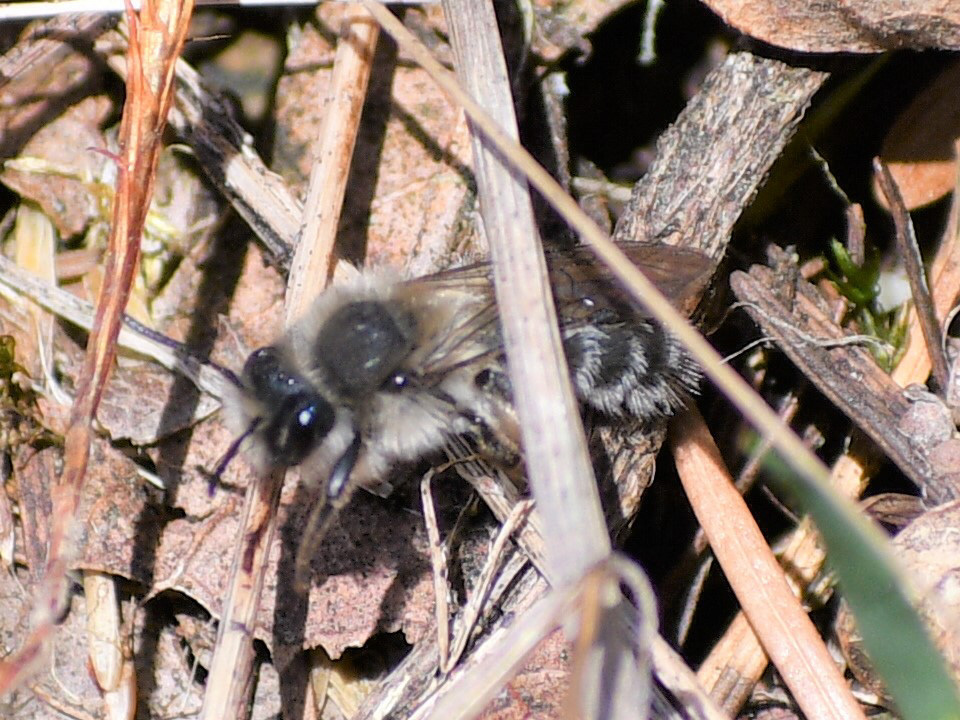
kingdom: Animalia
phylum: Arthropoda
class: Insecta
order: Hymenoptera
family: Andrenidae
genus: Andrena
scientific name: Andrena frigida
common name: Frigid mining bee
